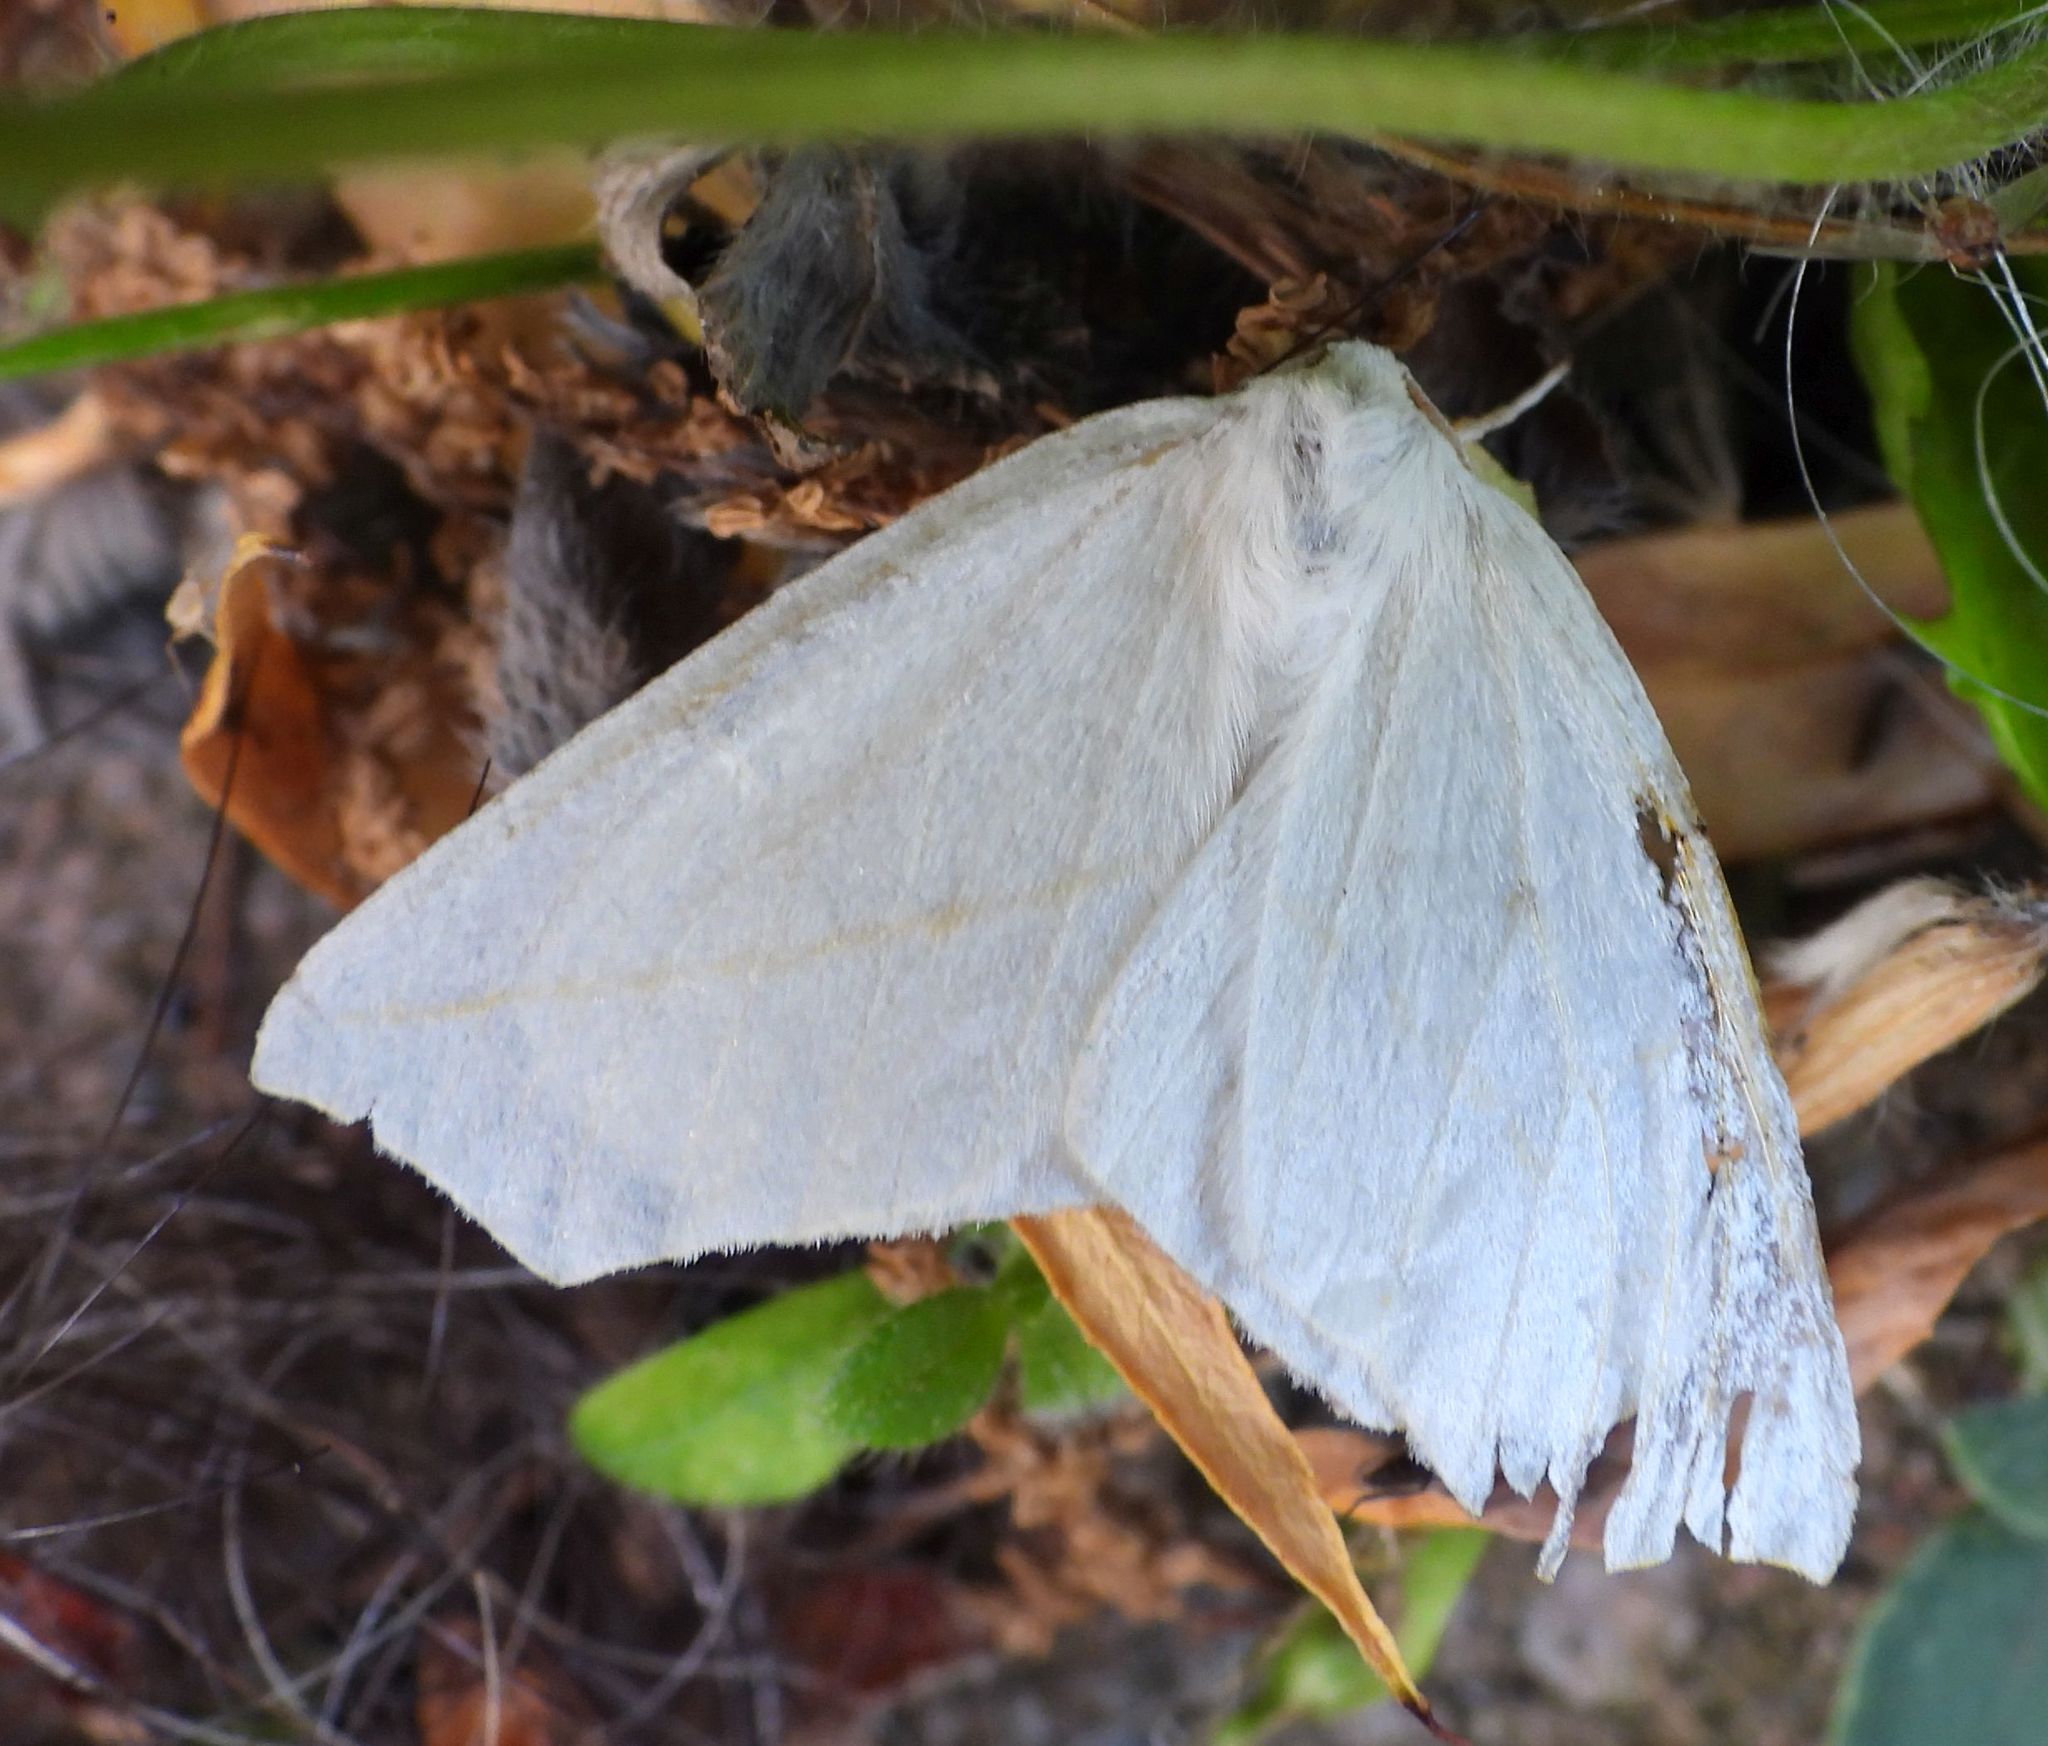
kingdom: Animalia
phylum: Arthropoda
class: Insecta
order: Lepidoptera
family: Geometridae
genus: Tetracis
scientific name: Tetracis cachexiata
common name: White slant-line
